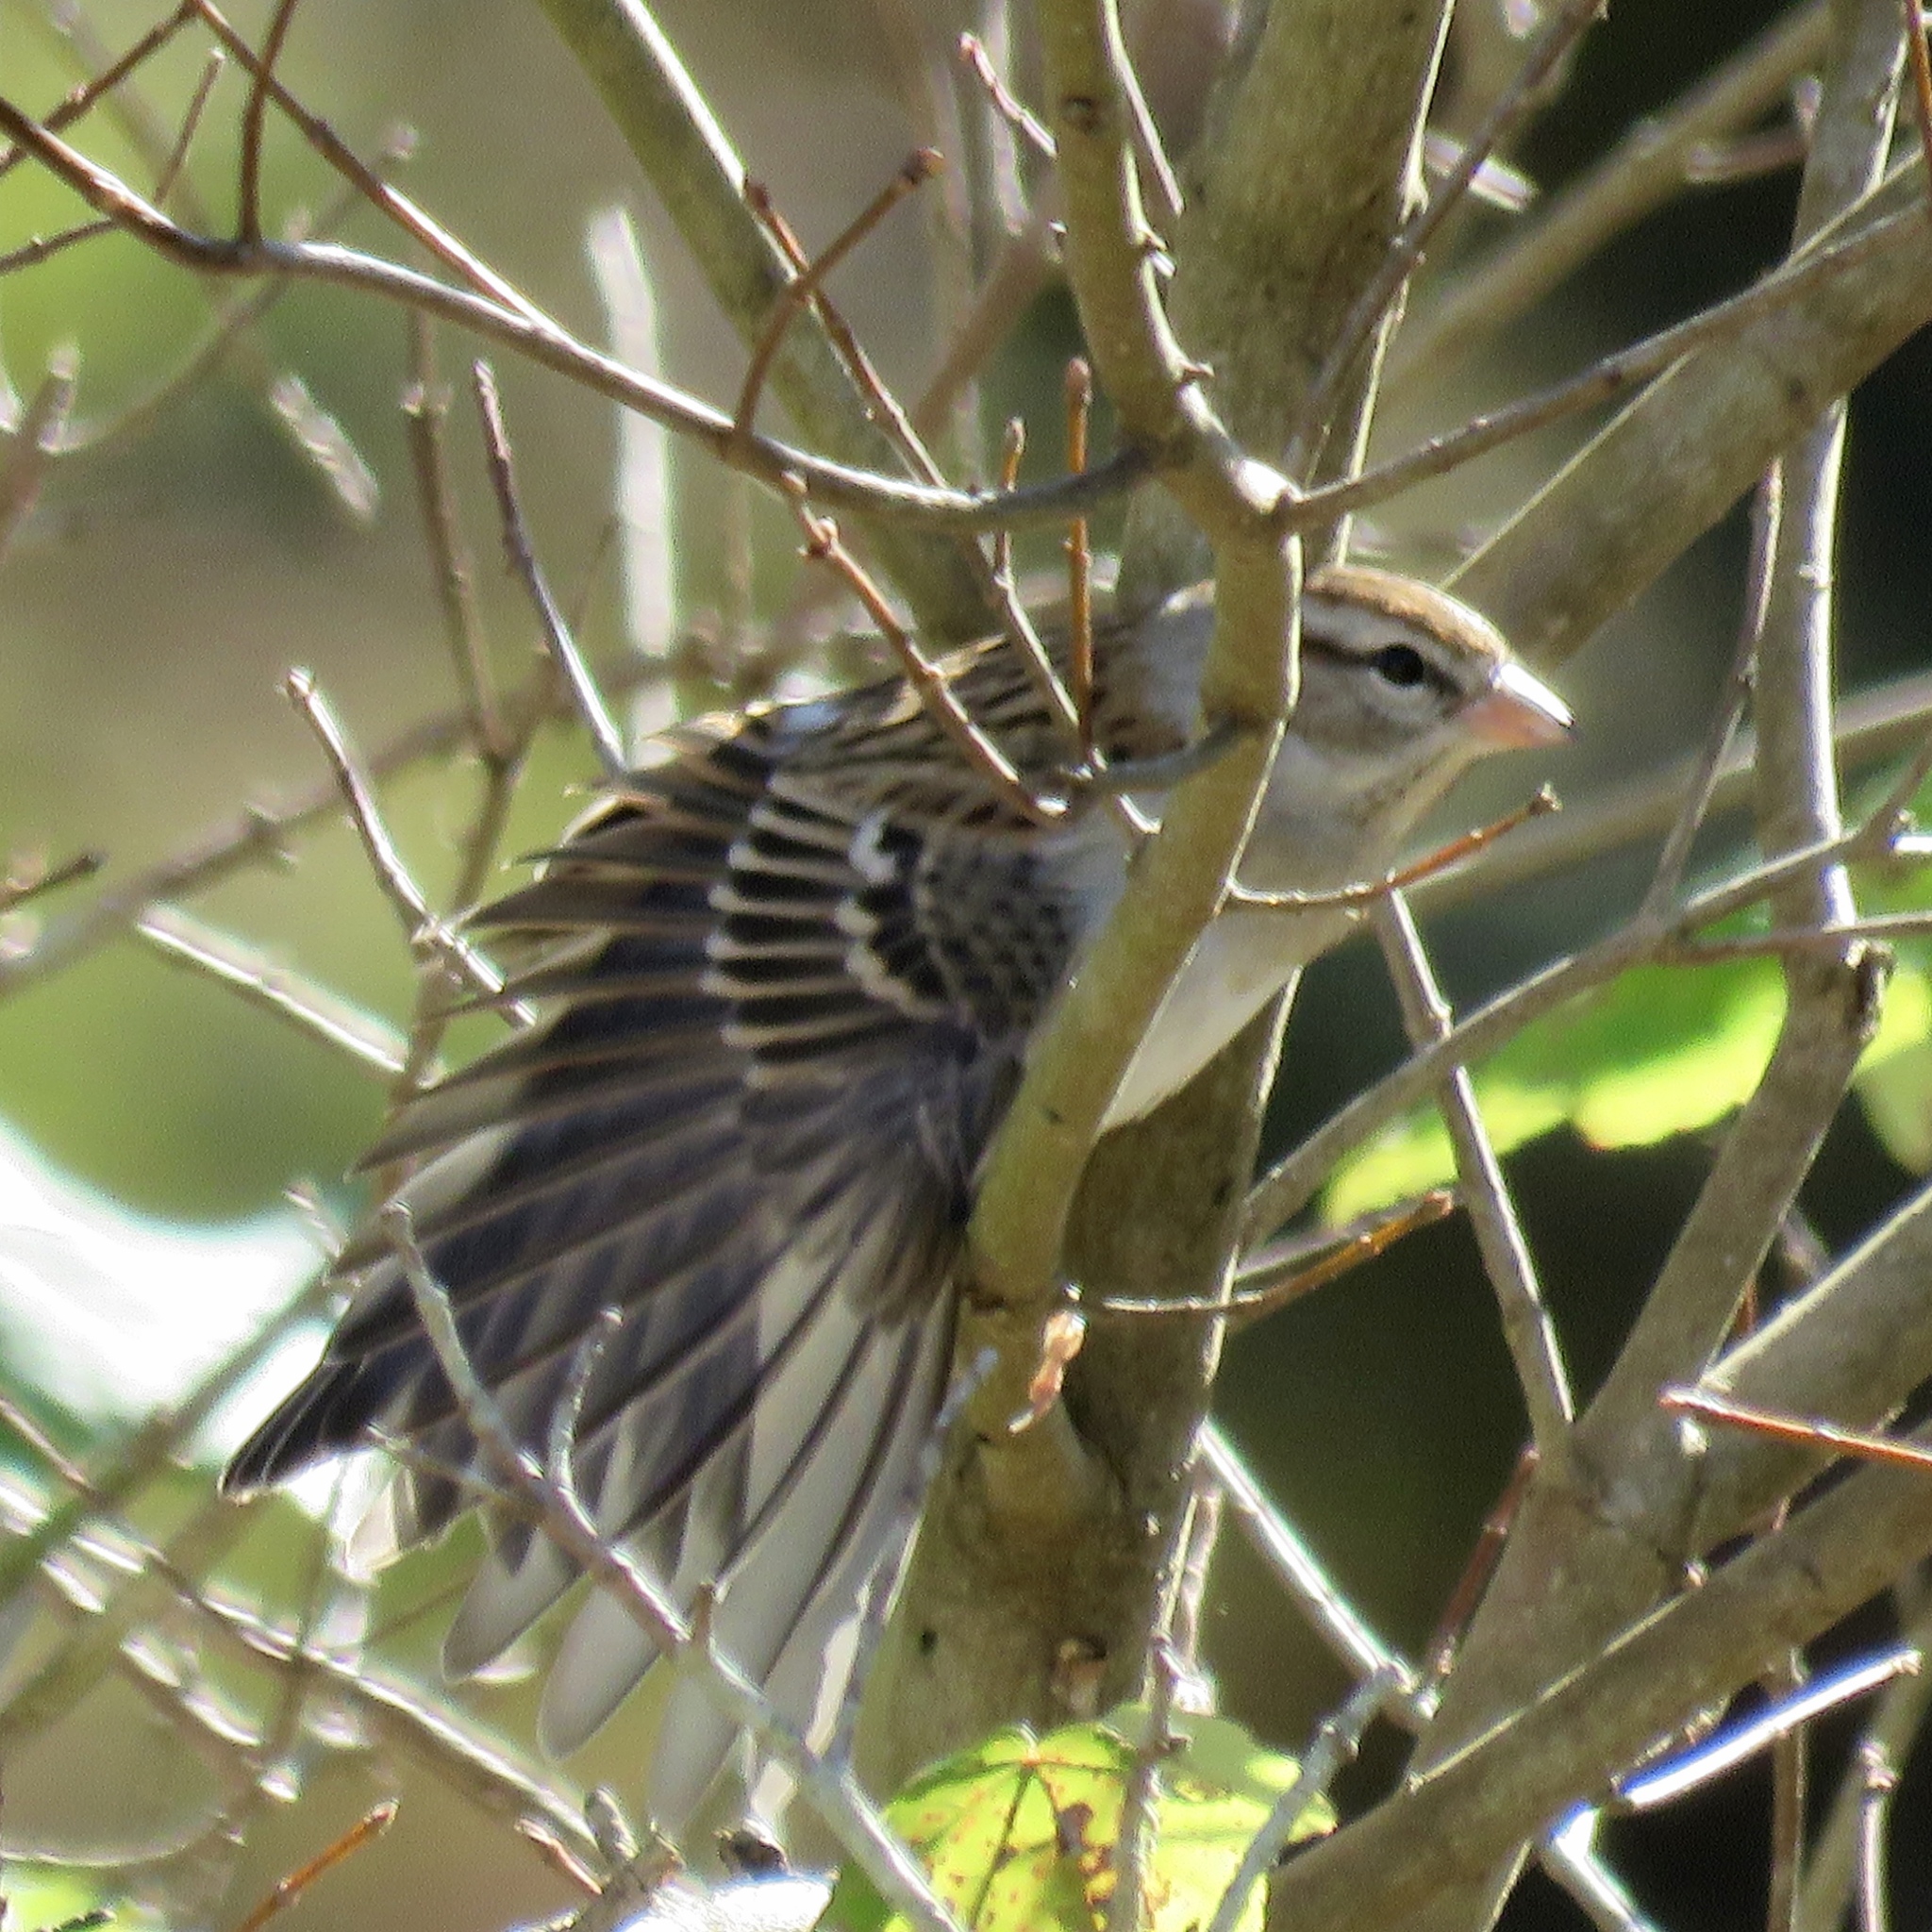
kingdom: Animalia
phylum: Chordata
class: Aves
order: Passeriformes
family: Passerellidae
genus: Spizella
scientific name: Spizella passerina
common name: Chipping sparrow
